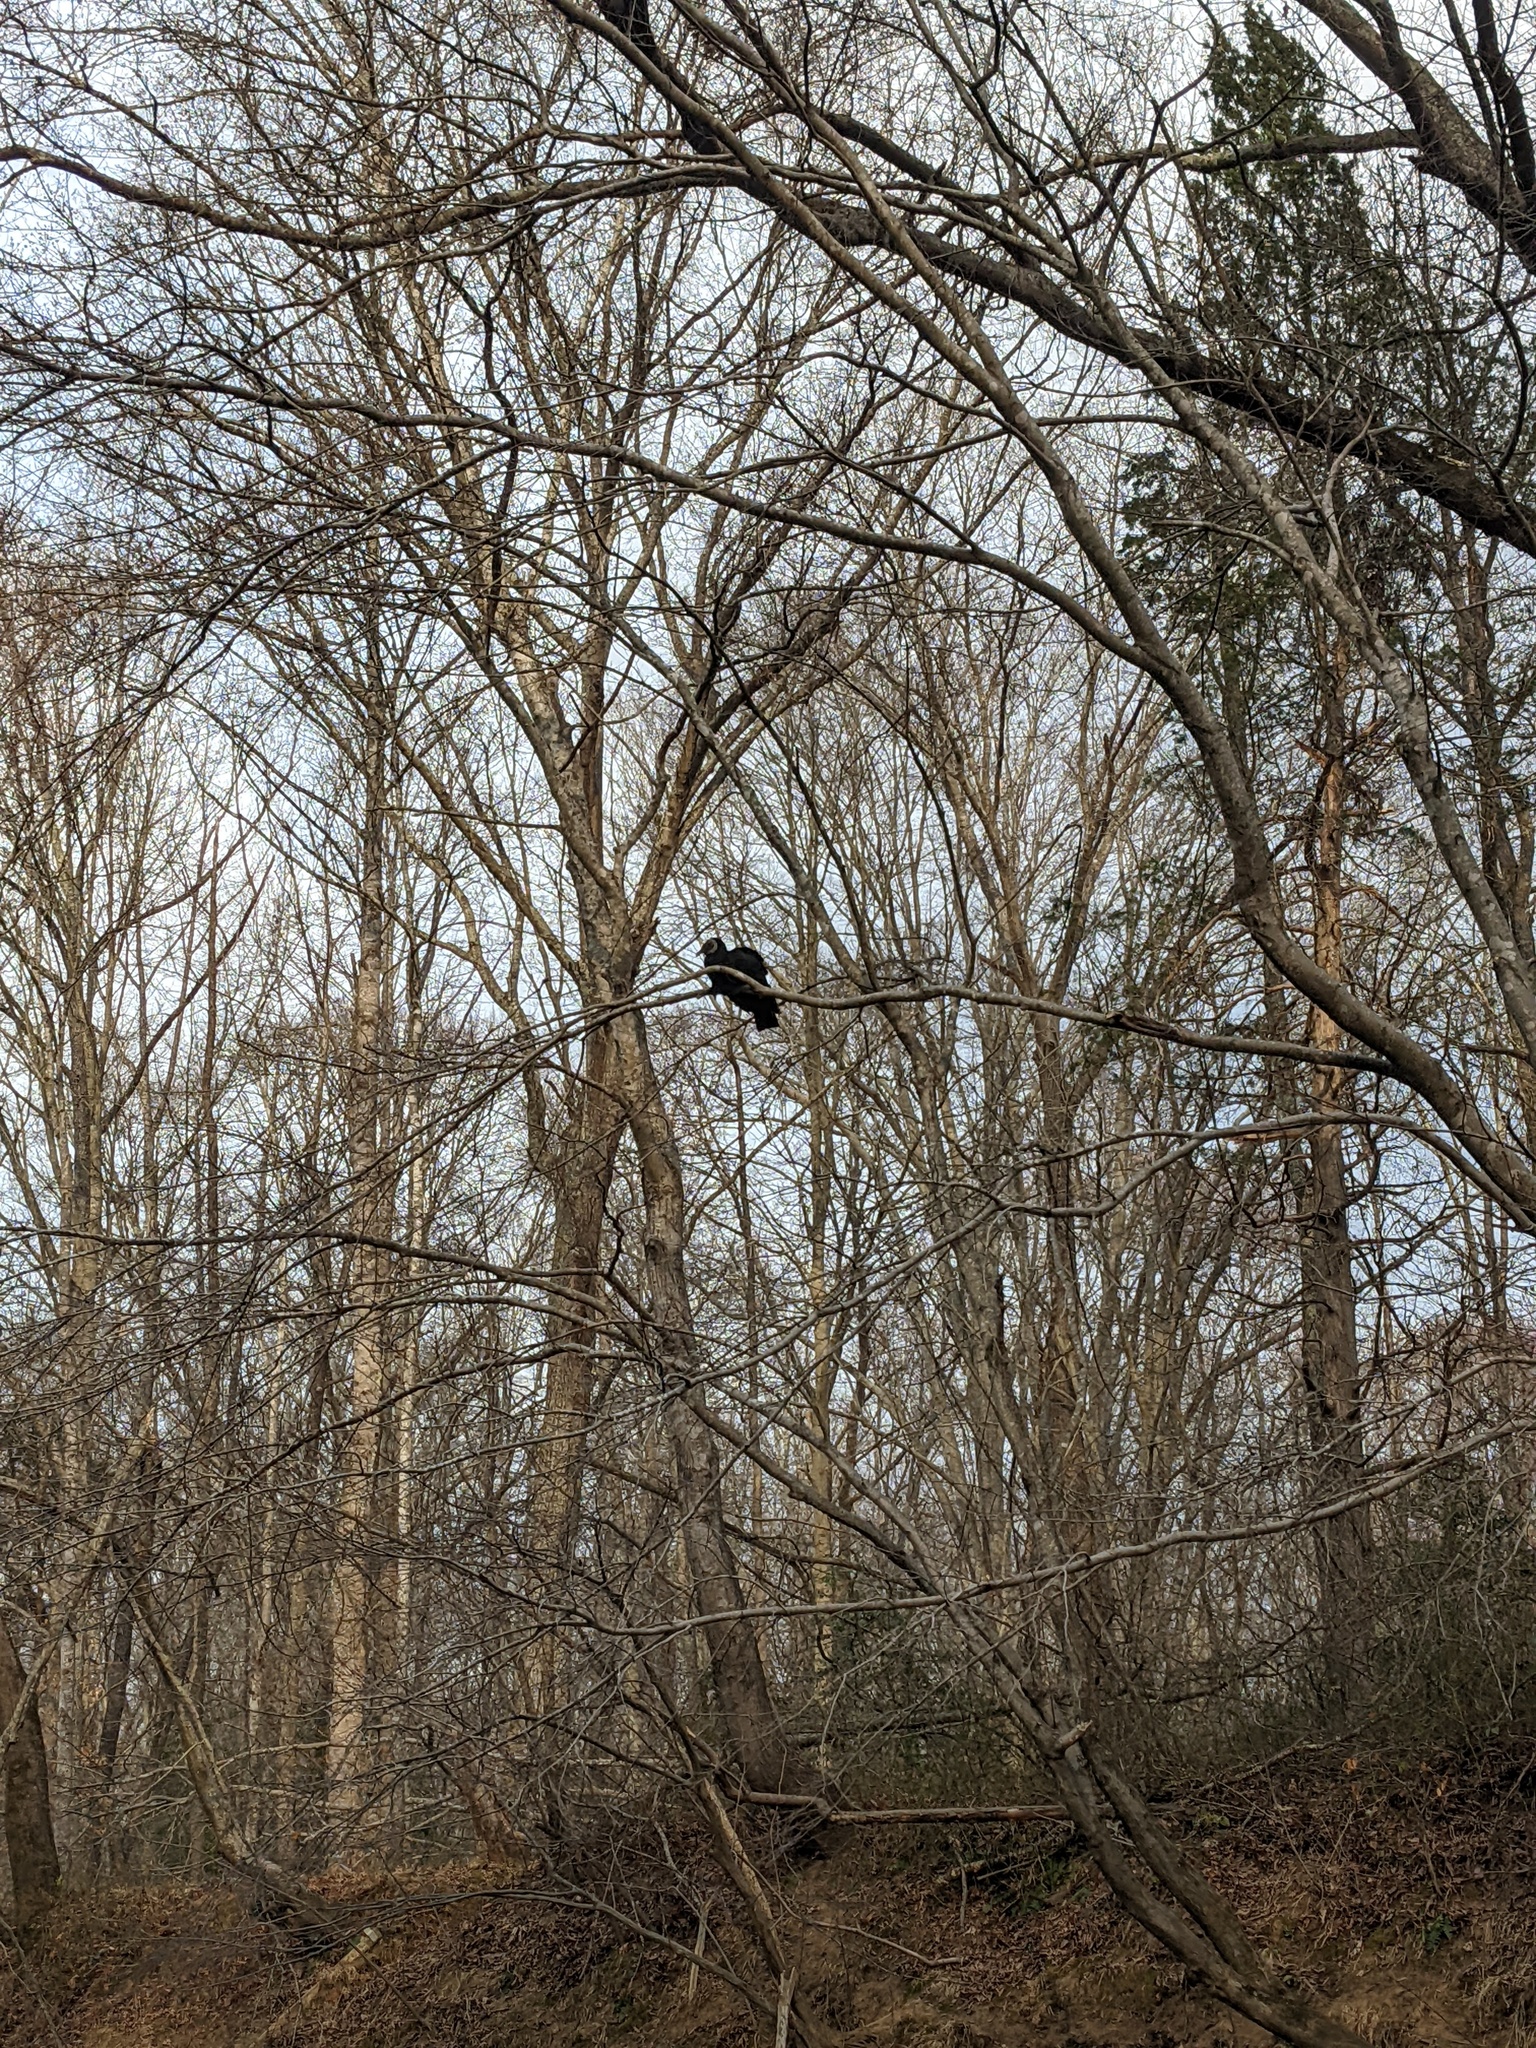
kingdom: Animalia
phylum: Chordata
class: Aves
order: Accipitriformes
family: Cathartidae
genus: Coragyps
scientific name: Coragyps atratus
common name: Black vulture
